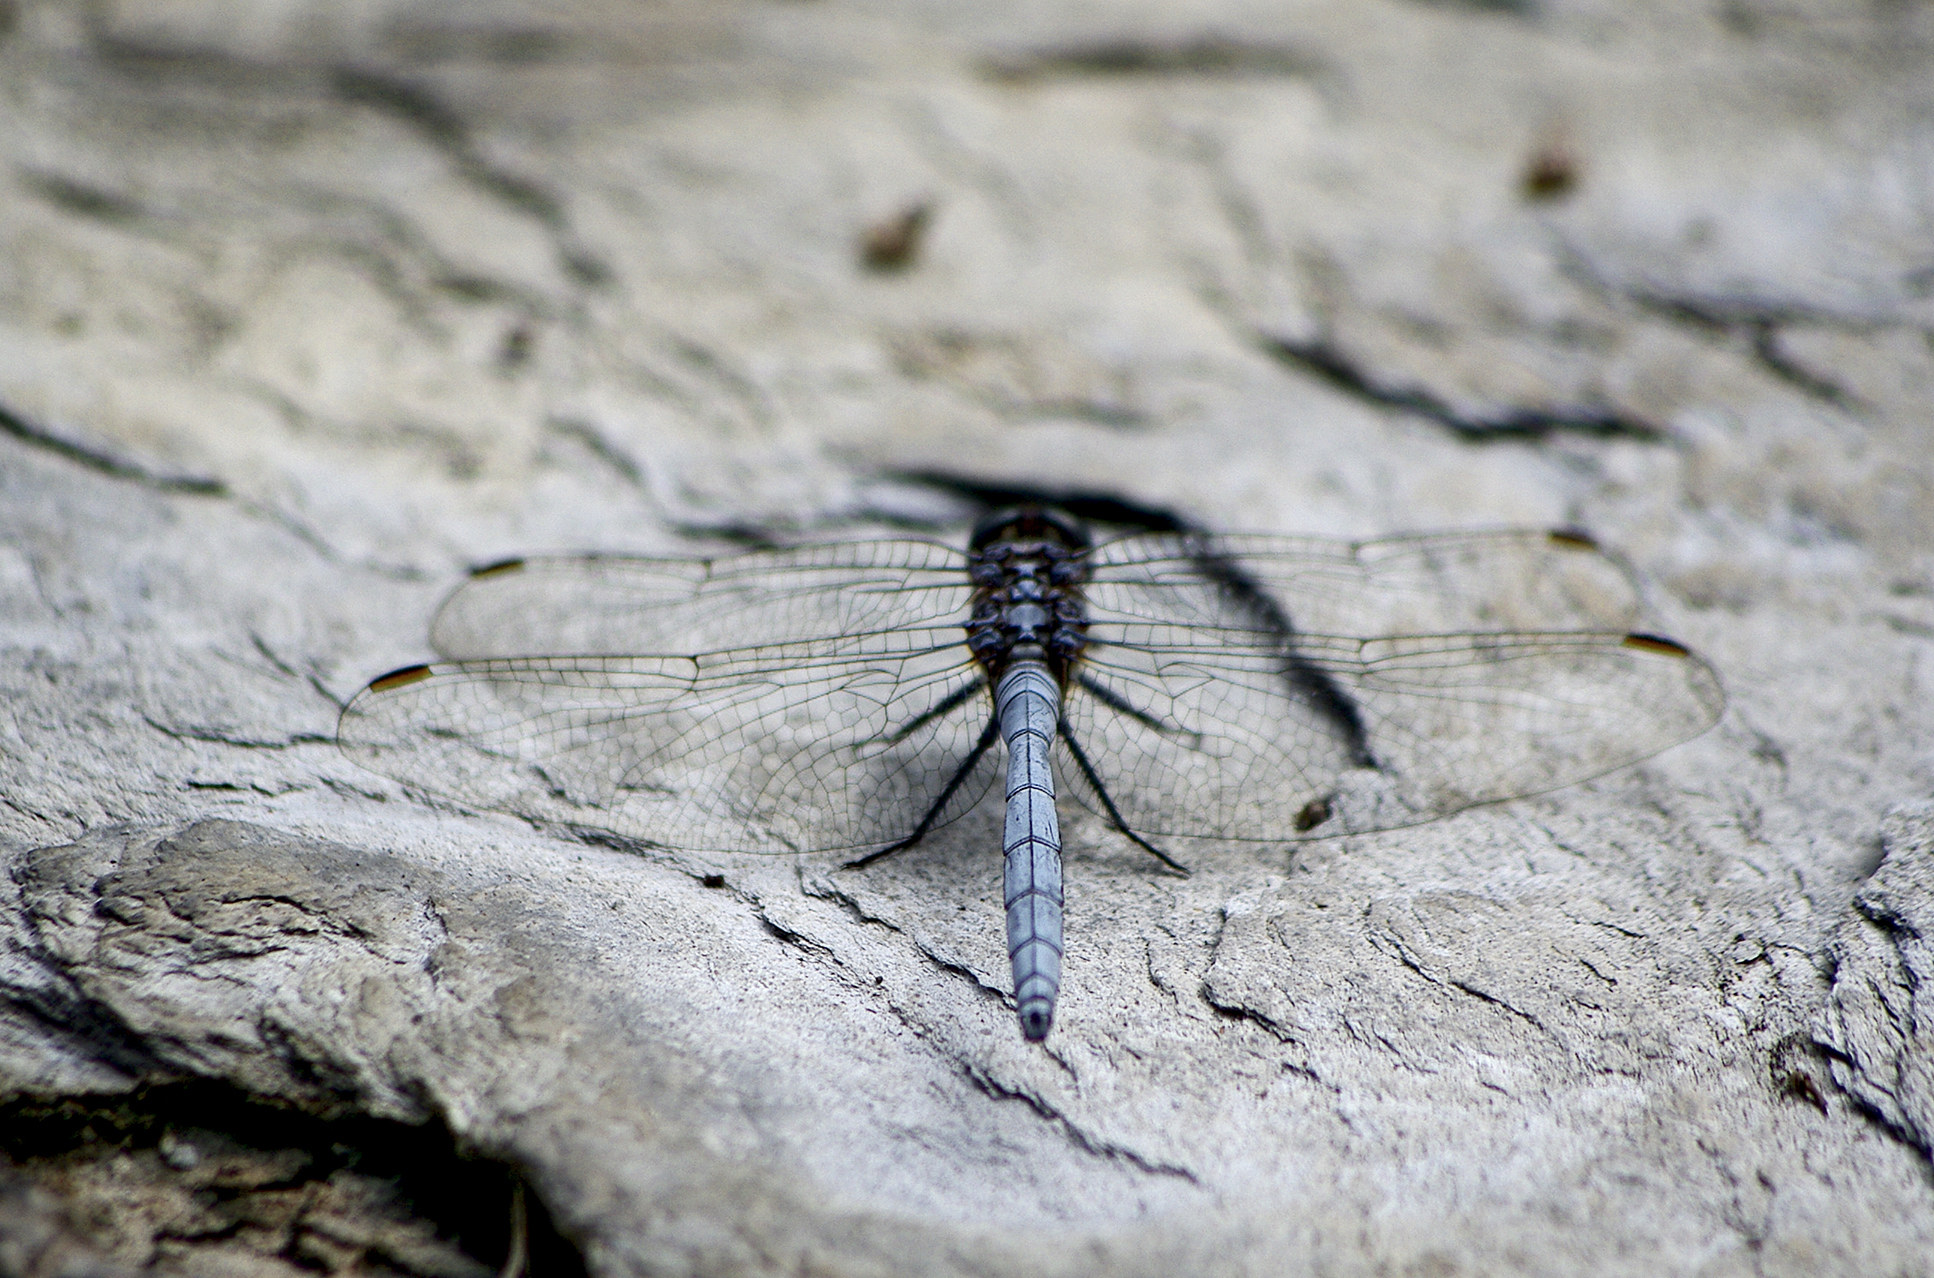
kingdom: Animalia
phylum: Arthropoda
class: Insecta
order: Odonata
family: Libellulidae
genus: Orthetrum
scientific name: Orthetrum chrysostigma
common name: Epaulet skimmer
